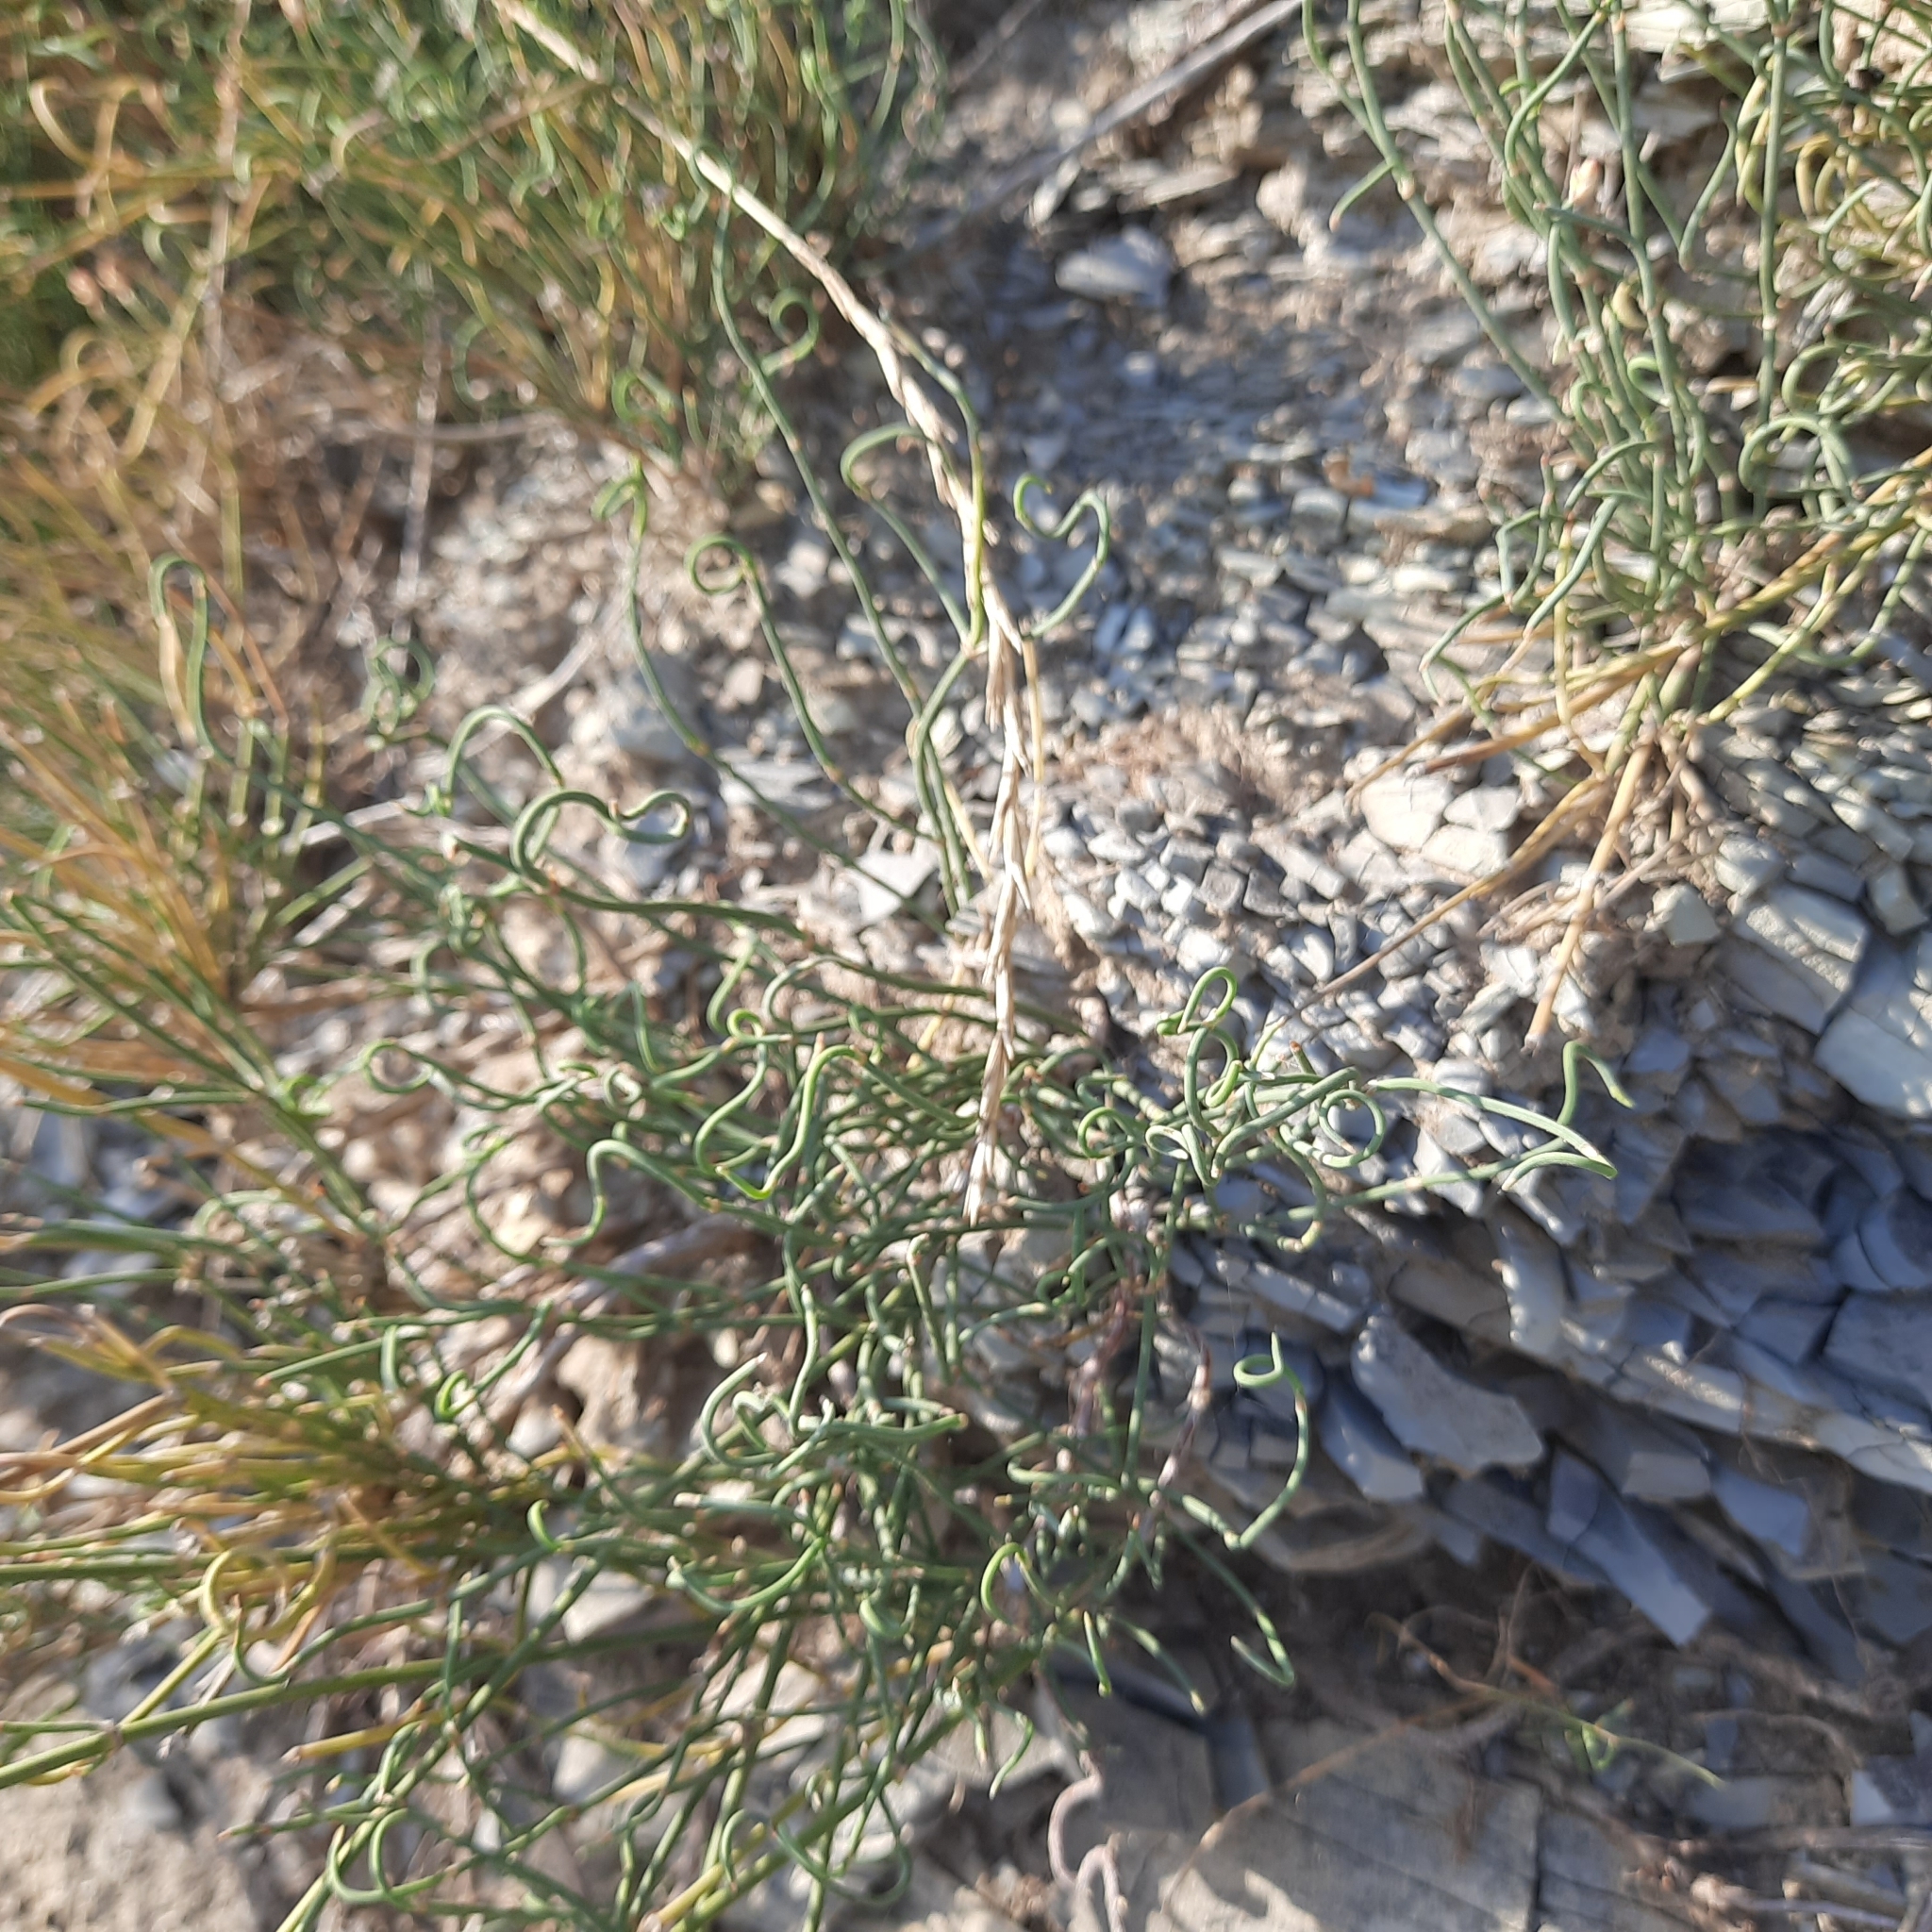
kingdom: Plantae
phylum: Tracheophyta
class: Gnetopsida
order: Ephedrales
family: Ephedraceae
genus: Ephedra
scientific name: Ephedra distachya
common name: Sea grape
